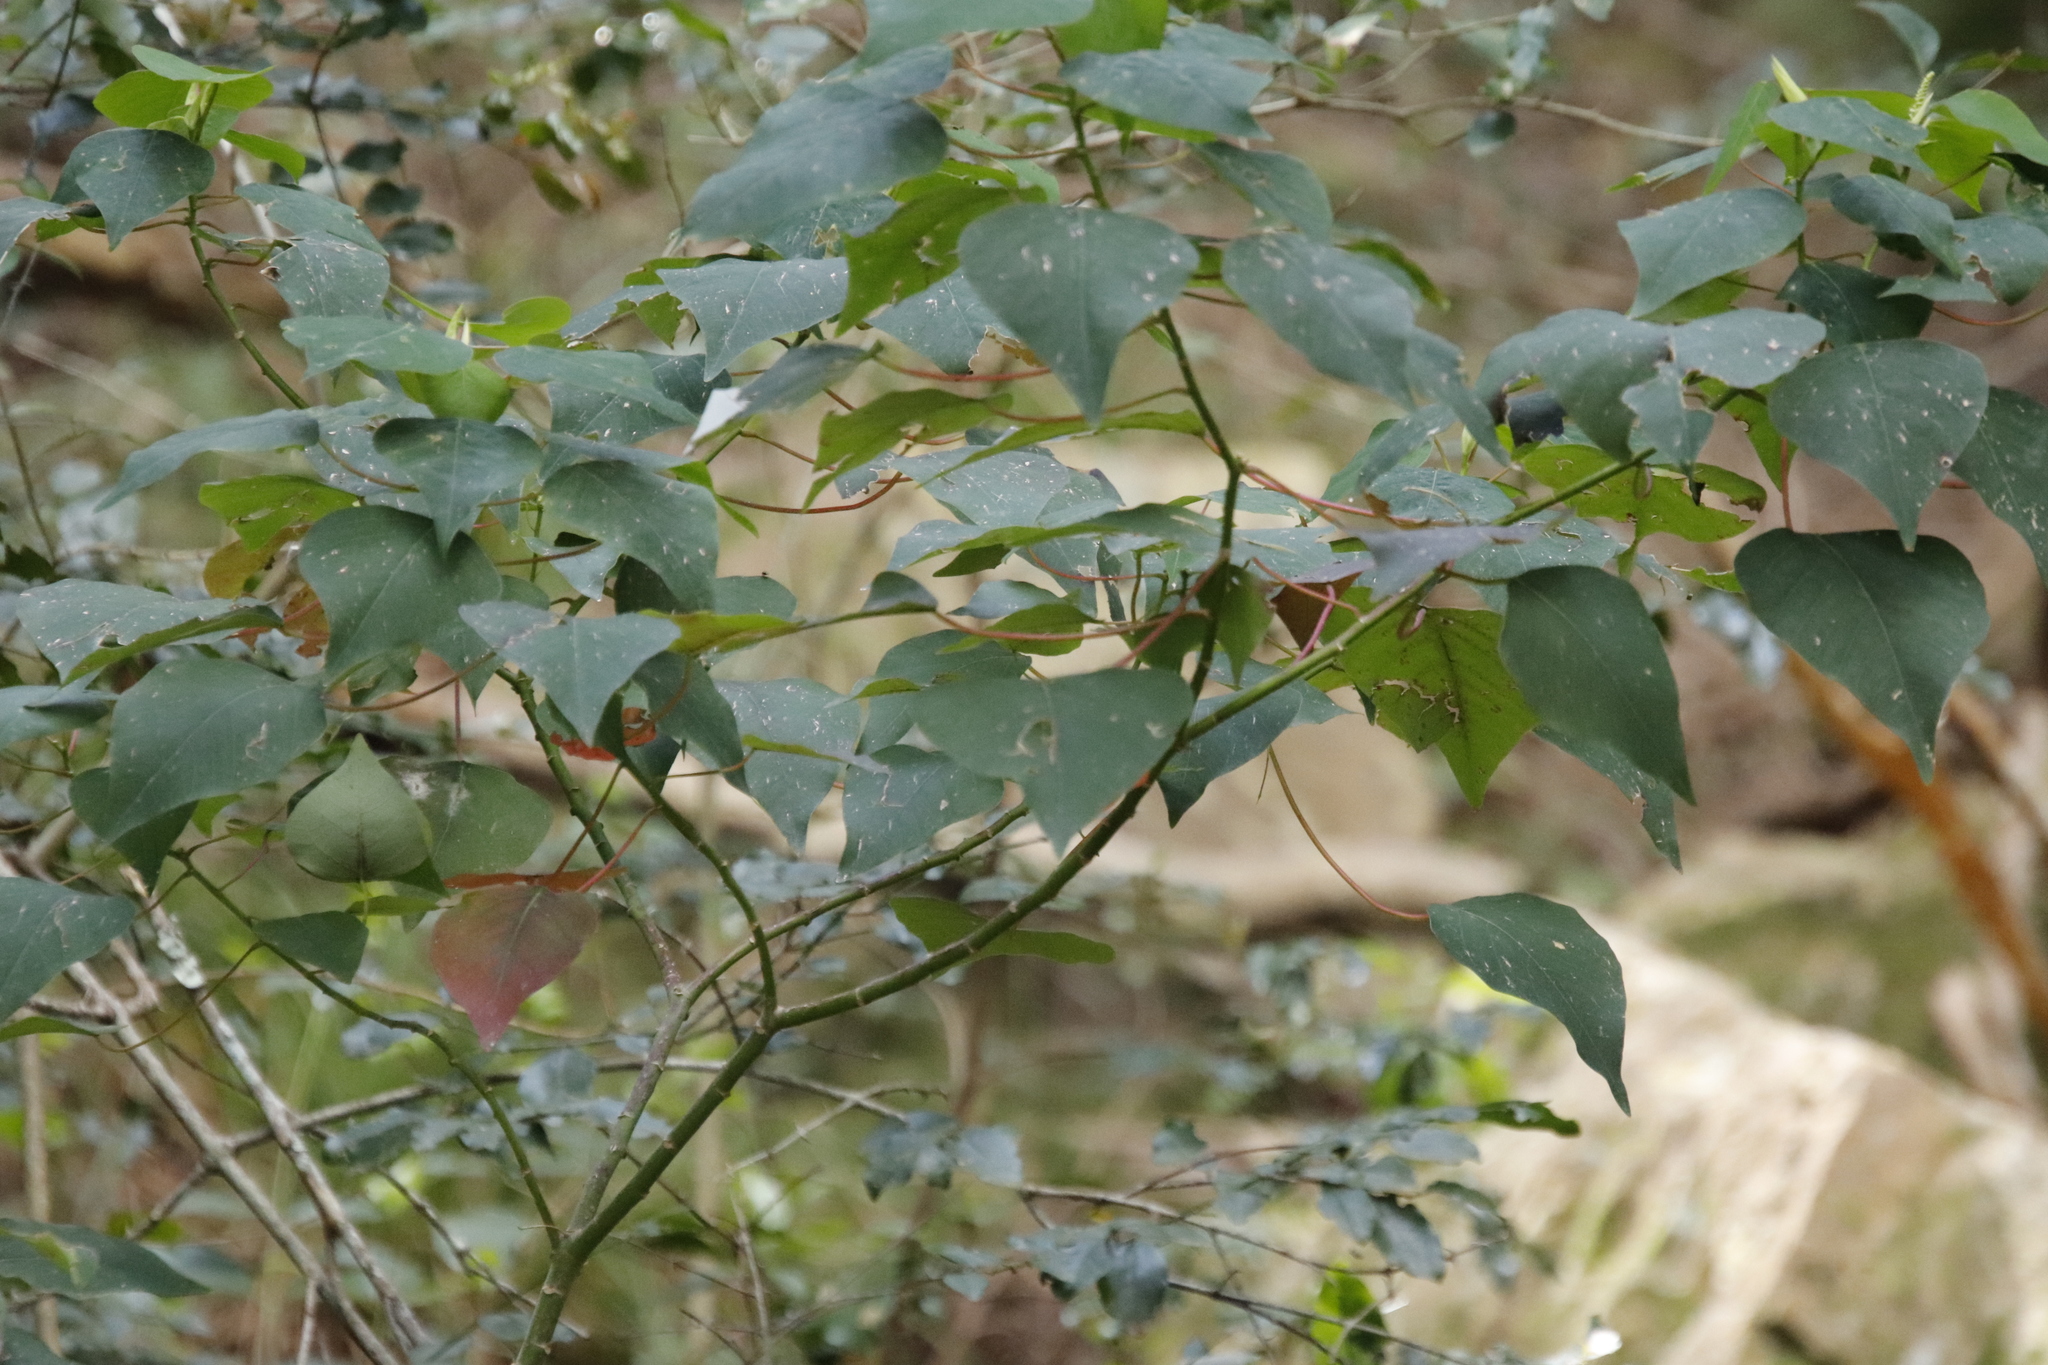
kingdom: Plantae
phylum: Tracheophyta
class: Magnoliopsida
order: Malpighiales
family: Euphorbiaceae
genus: Homalanthus
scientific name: Homalanthus populifolius
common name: Queensland poplar
